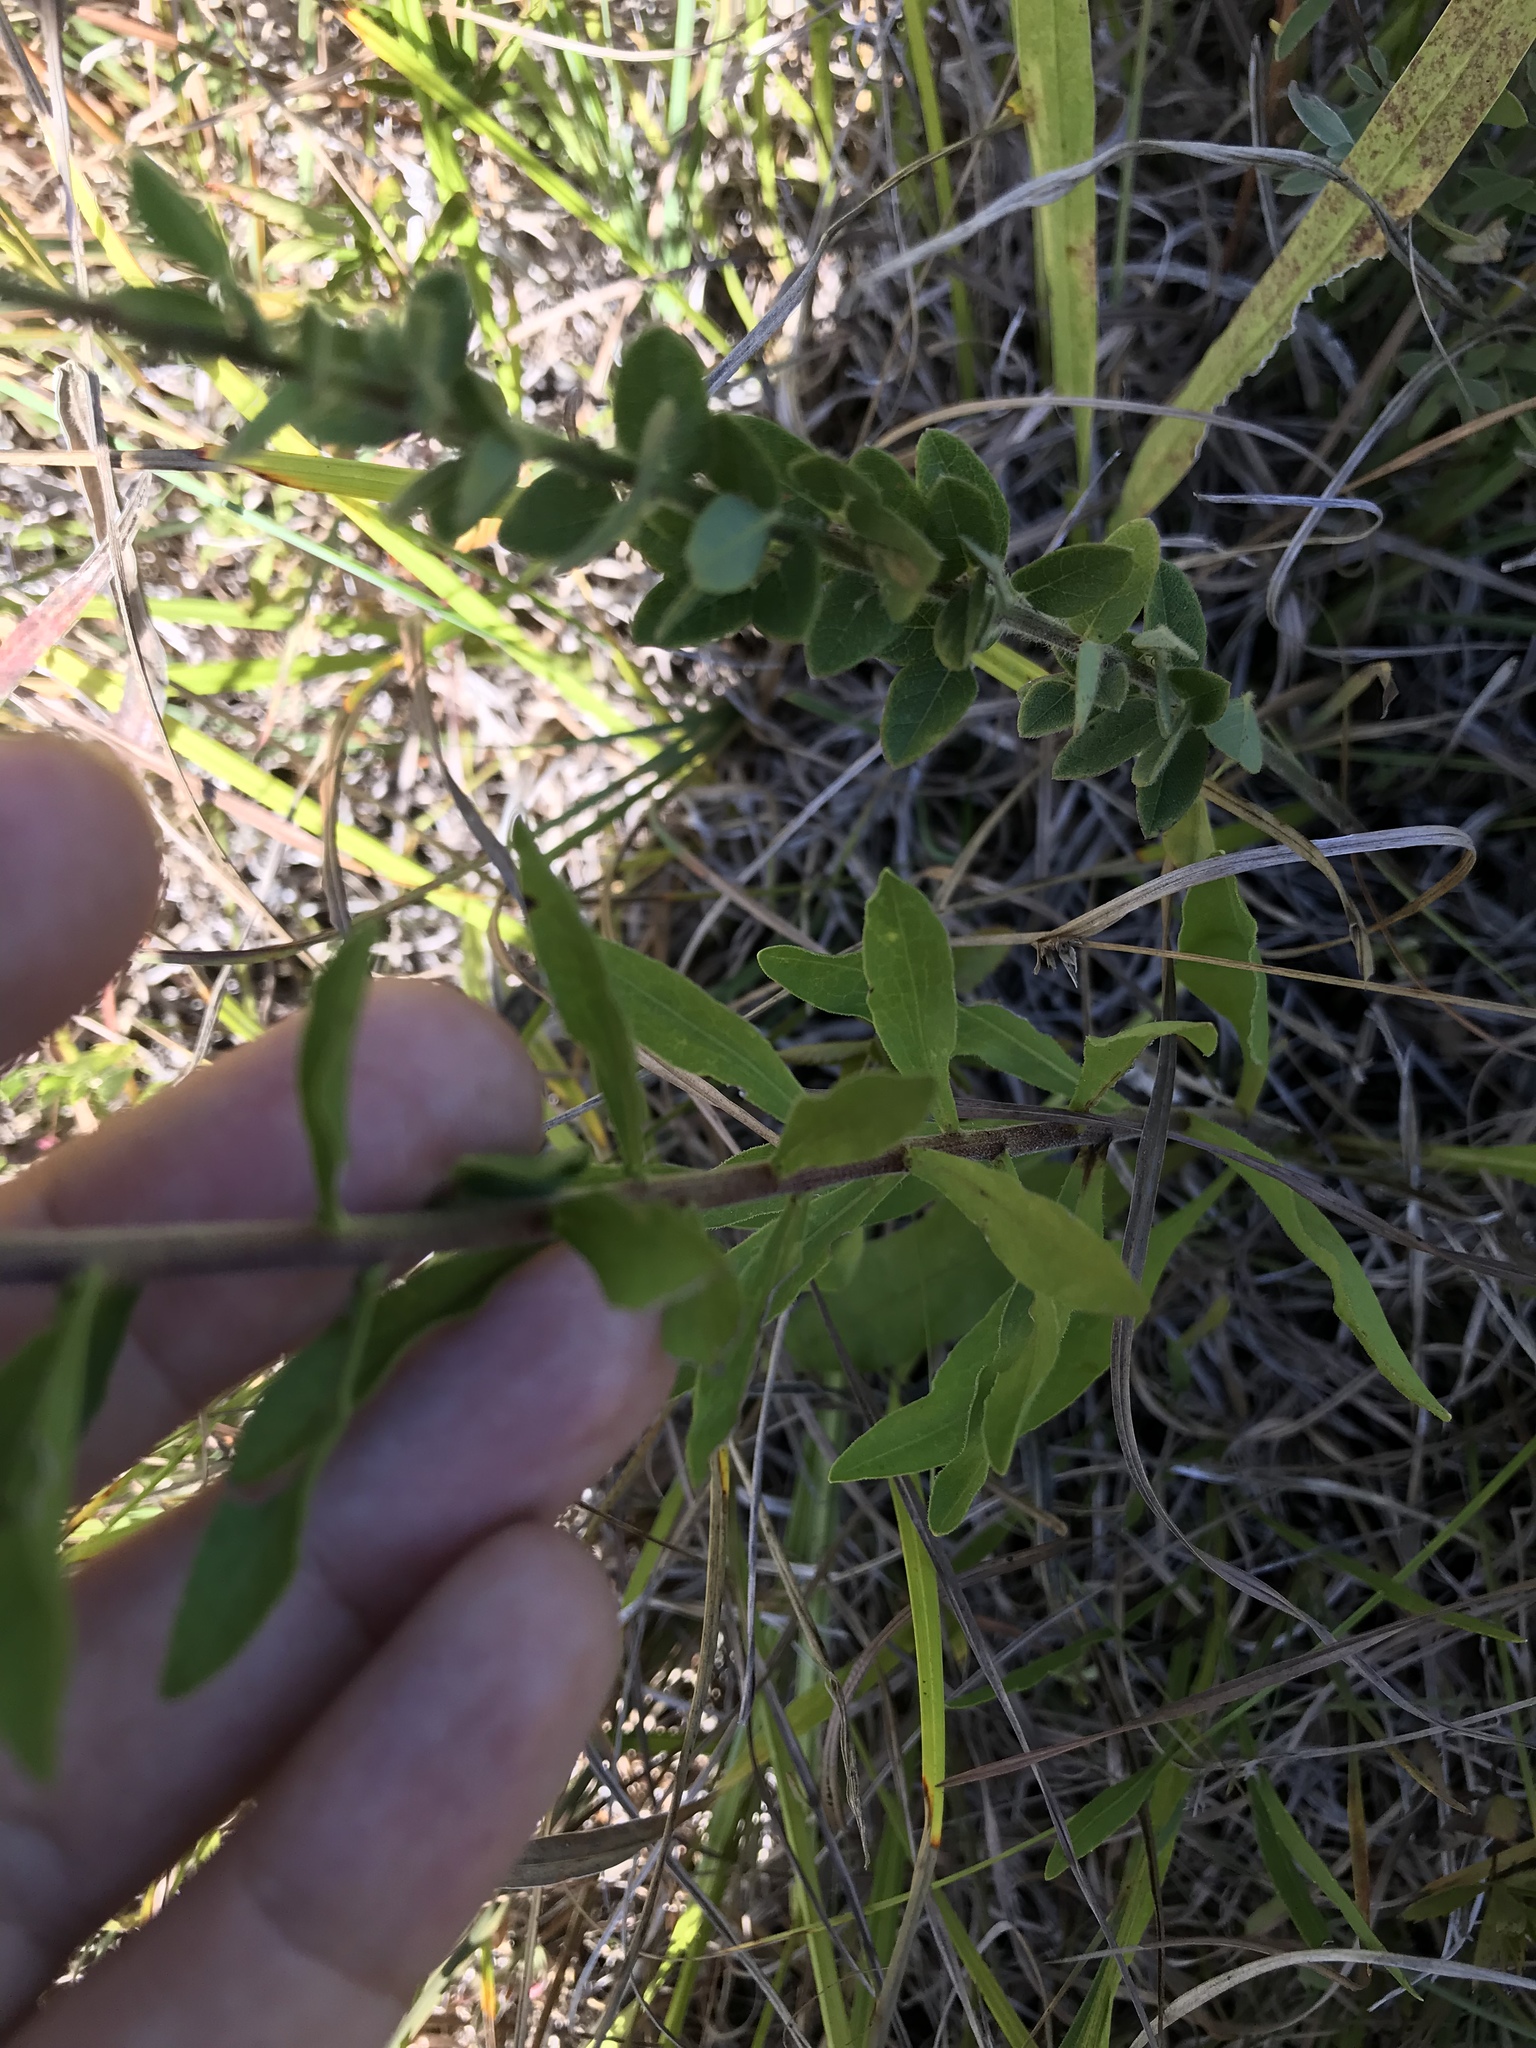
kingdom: Plantae
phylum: Tracheophyta
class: Magnoliopsida
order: Asterales
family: Asteraceae
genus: Liatris
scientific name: Liatris squarrulosa
